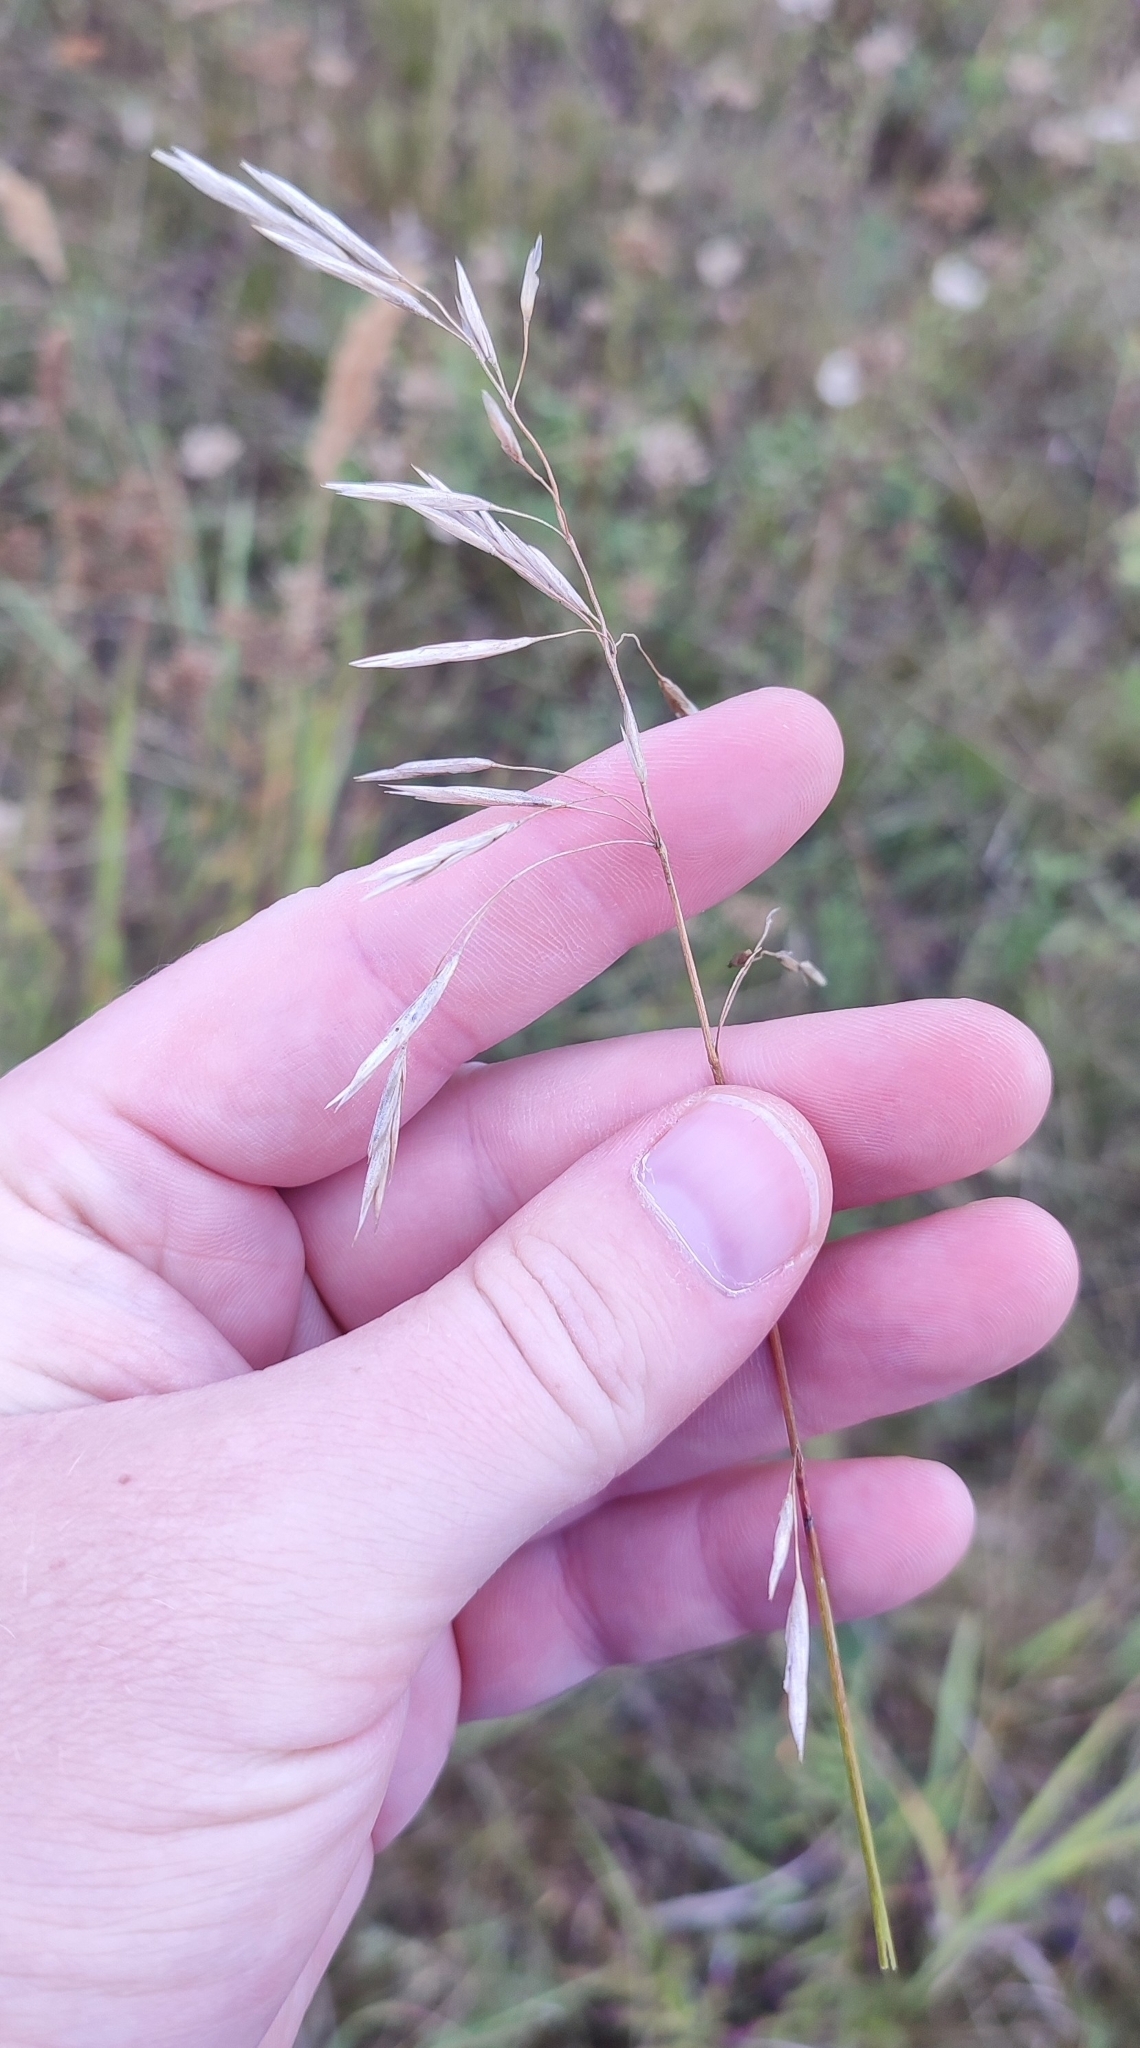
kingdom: Plantae
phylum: Tracheophyta
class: Liliopsida
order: Poales
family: Poaceae
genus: Bromus
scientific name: Bromus inermis
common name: Smooth brome
